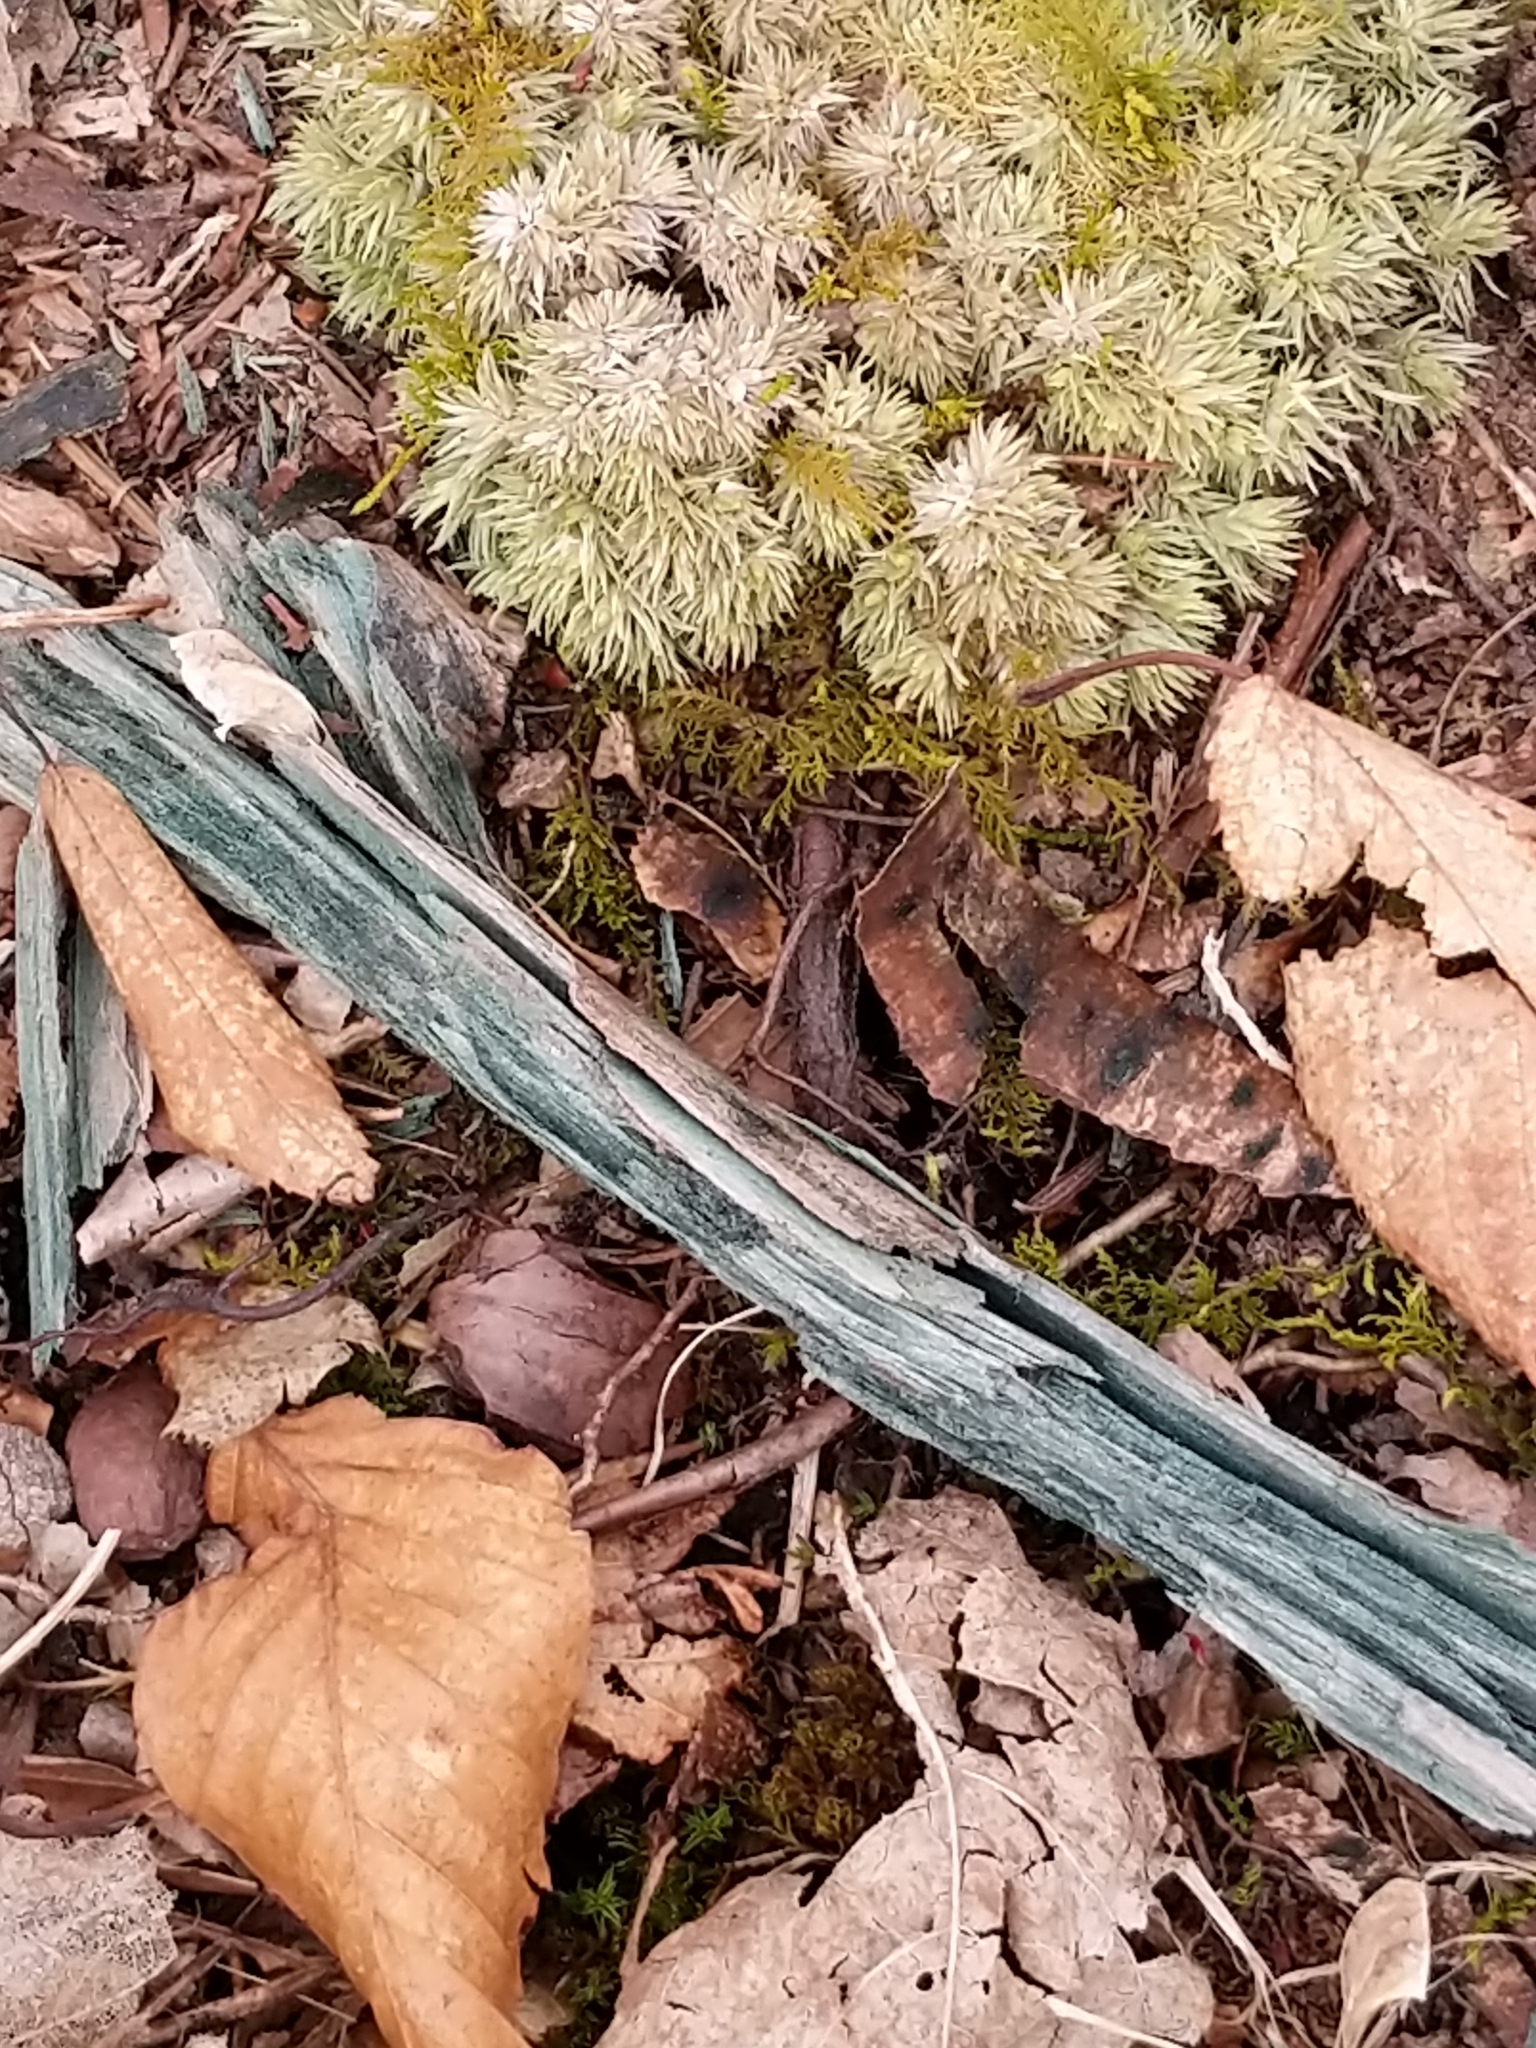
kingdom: Fungi
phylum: Ascomycota
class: Leotiomycetes
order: Helotiales
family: Chlorociboriaceae
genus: Chlorociboria
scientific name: Chlorociboria
